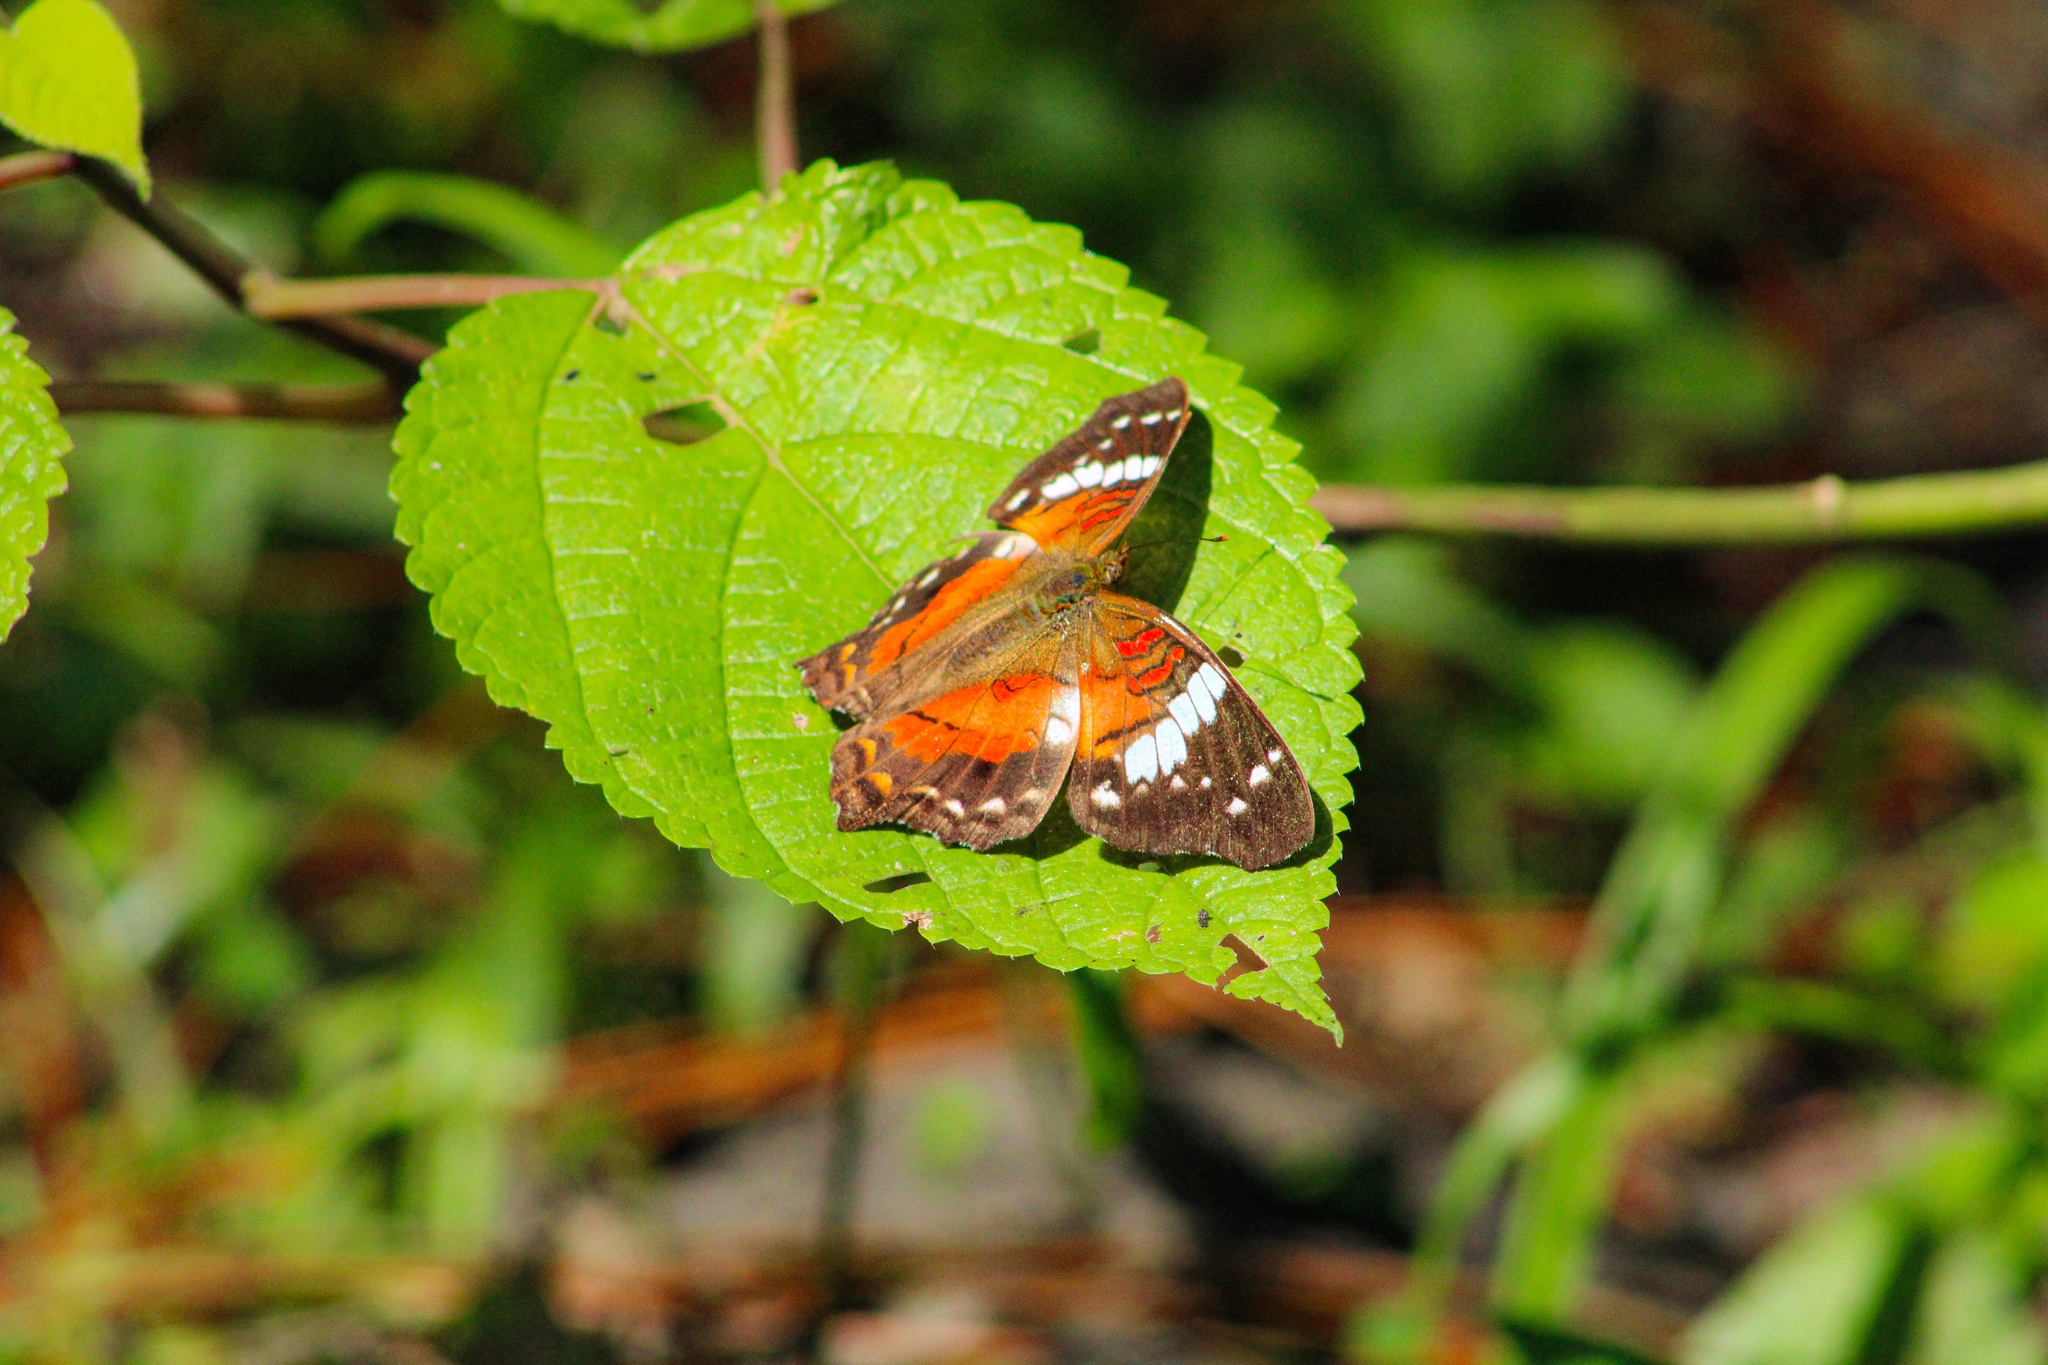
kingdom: Animalia
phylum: Arthropoda
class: Insecta
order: Lepidoptera
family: Nymphalidae
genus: Anartia
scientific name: Anartia amathea
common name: Red peacock
